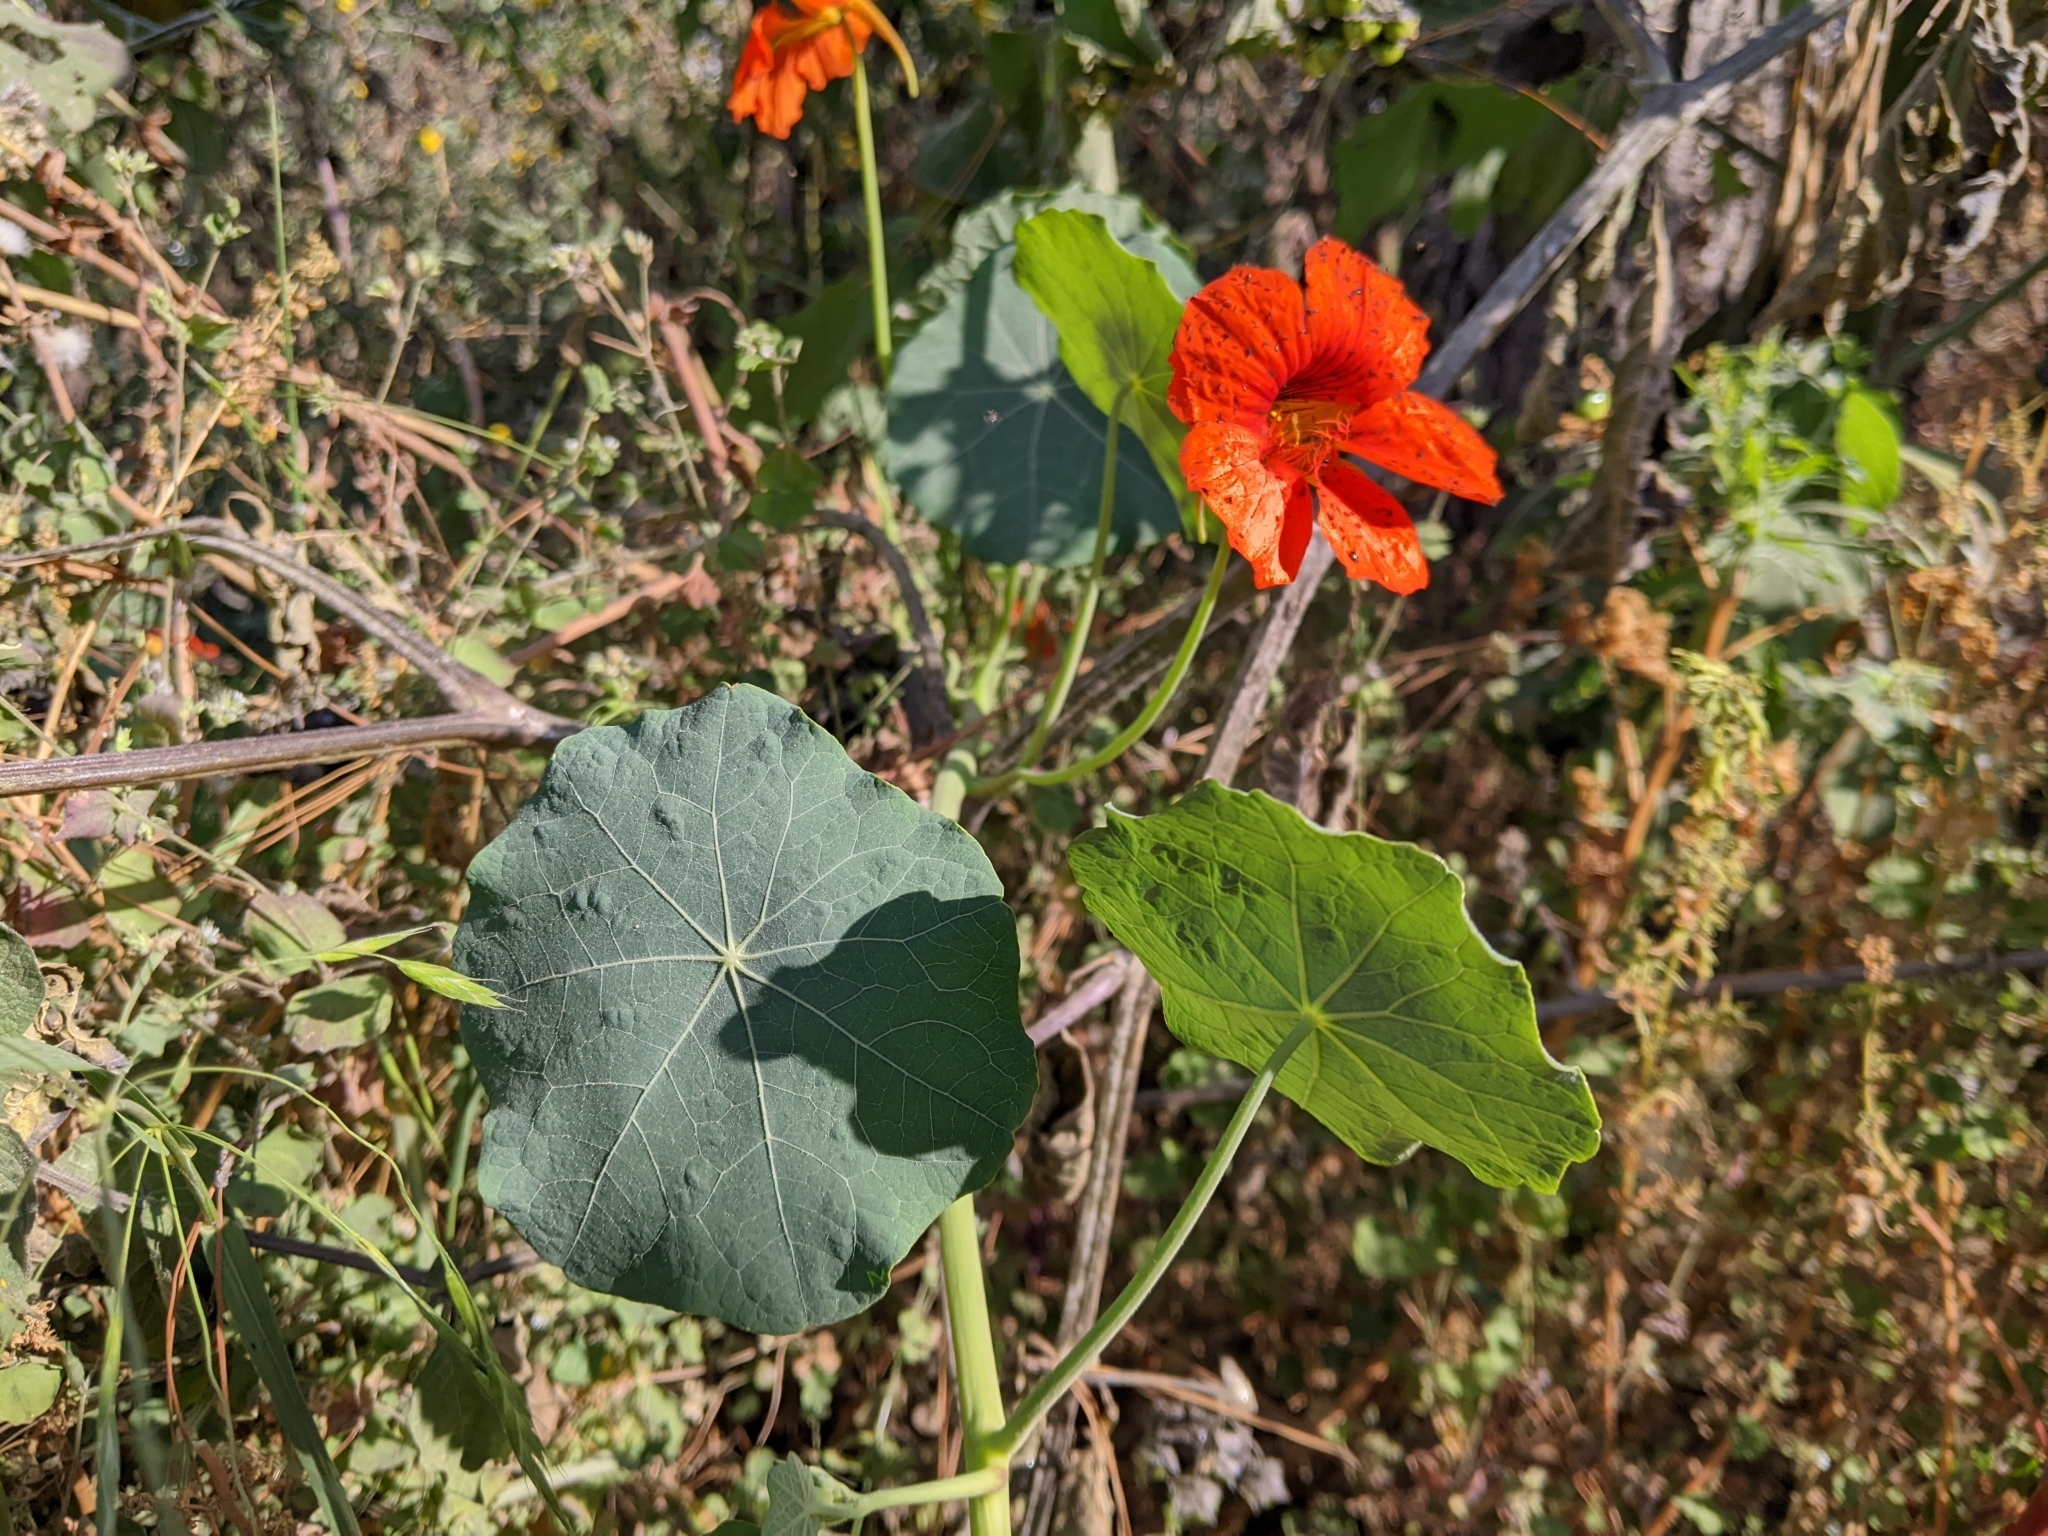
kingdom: Plantae
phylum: Tracheophyta
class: Magnoliopsida
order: Brassicales
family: Tropaeolaceae
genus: Tropaeolum
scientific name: Tropaeolum majus
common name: Nasturtium
